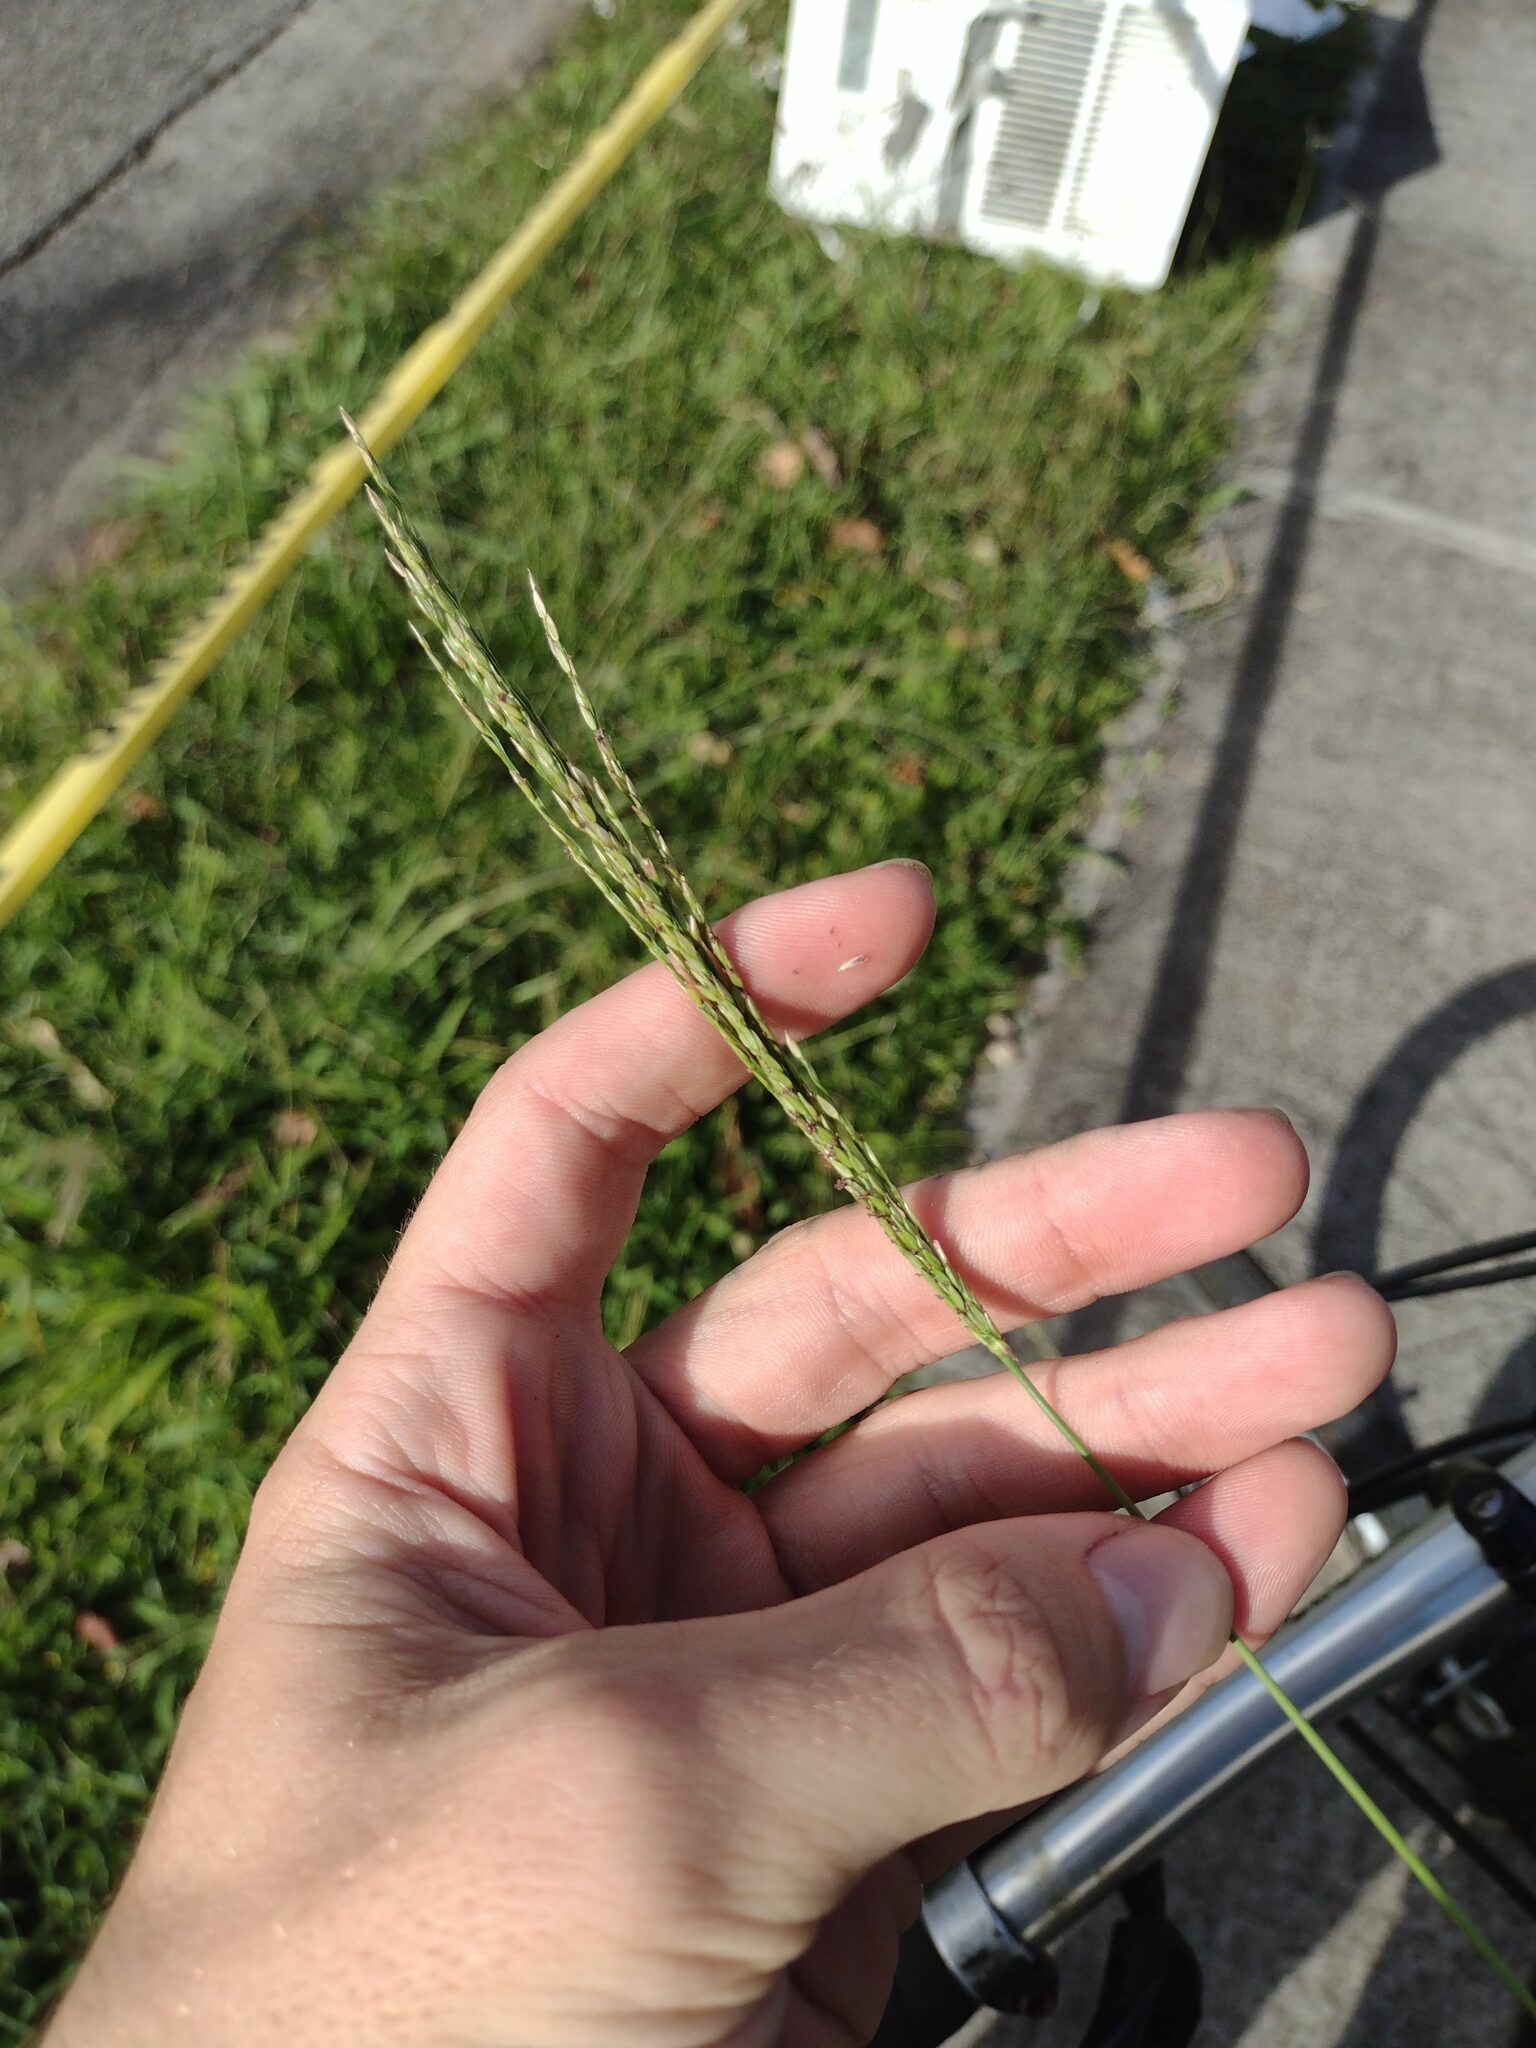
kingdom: Plantae
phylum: Tracheophyta
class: Liliopsida
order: Poales
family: Poaceae
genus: Digitaria
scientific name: Digitaria setigera
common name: East indian crabgrass
